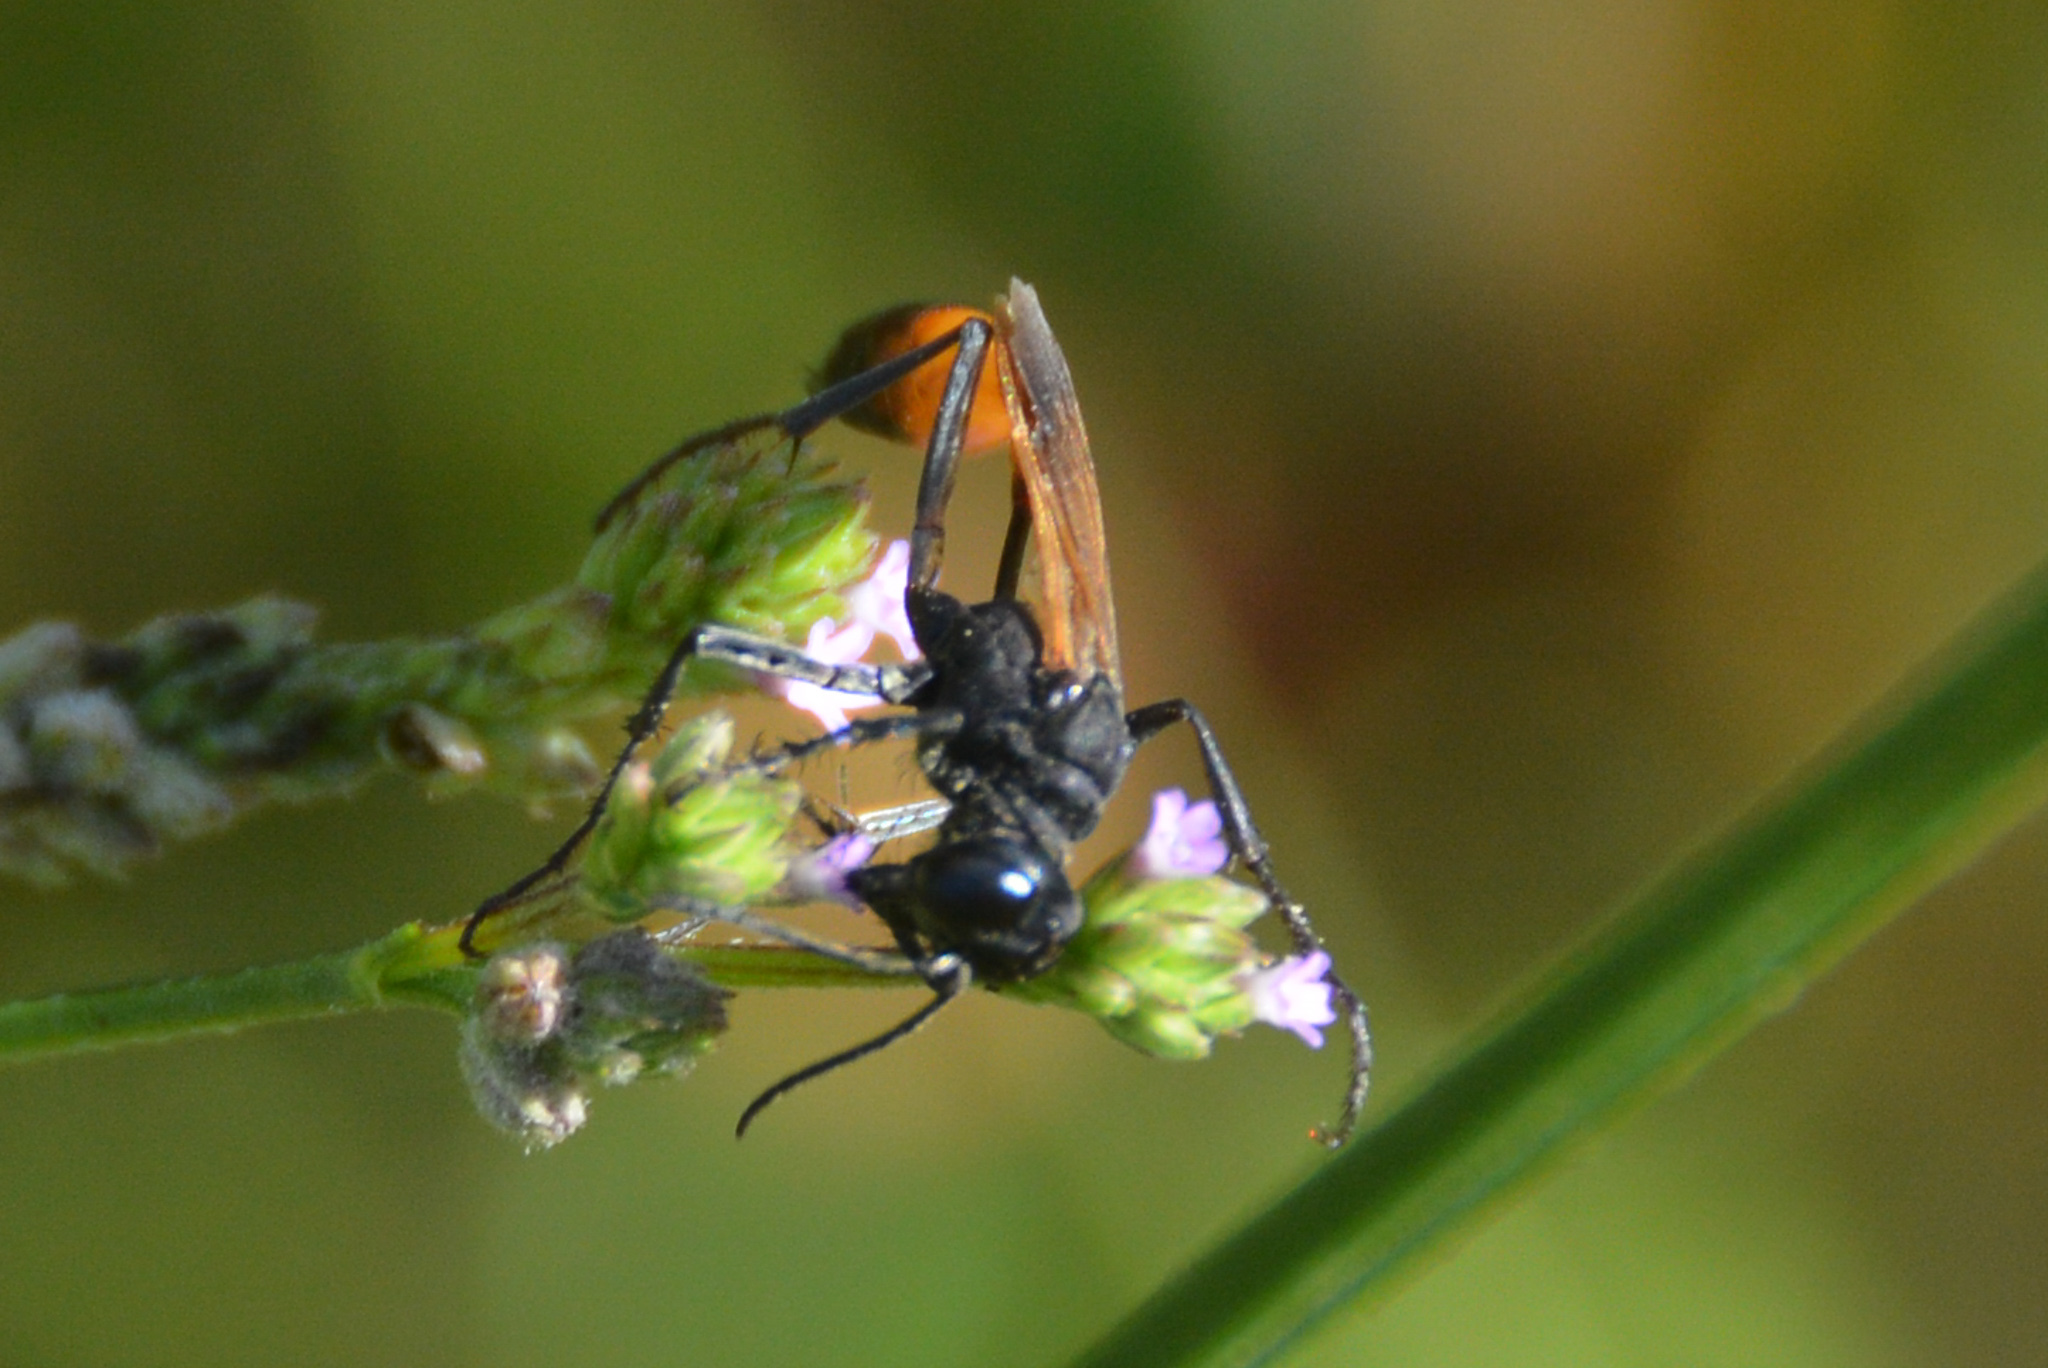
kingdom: Animalia
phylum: Arthropoda
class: Insecta
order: Hymenoptera
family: Sphecidae
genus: Ammophila
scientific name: Ammophila pictipennis
